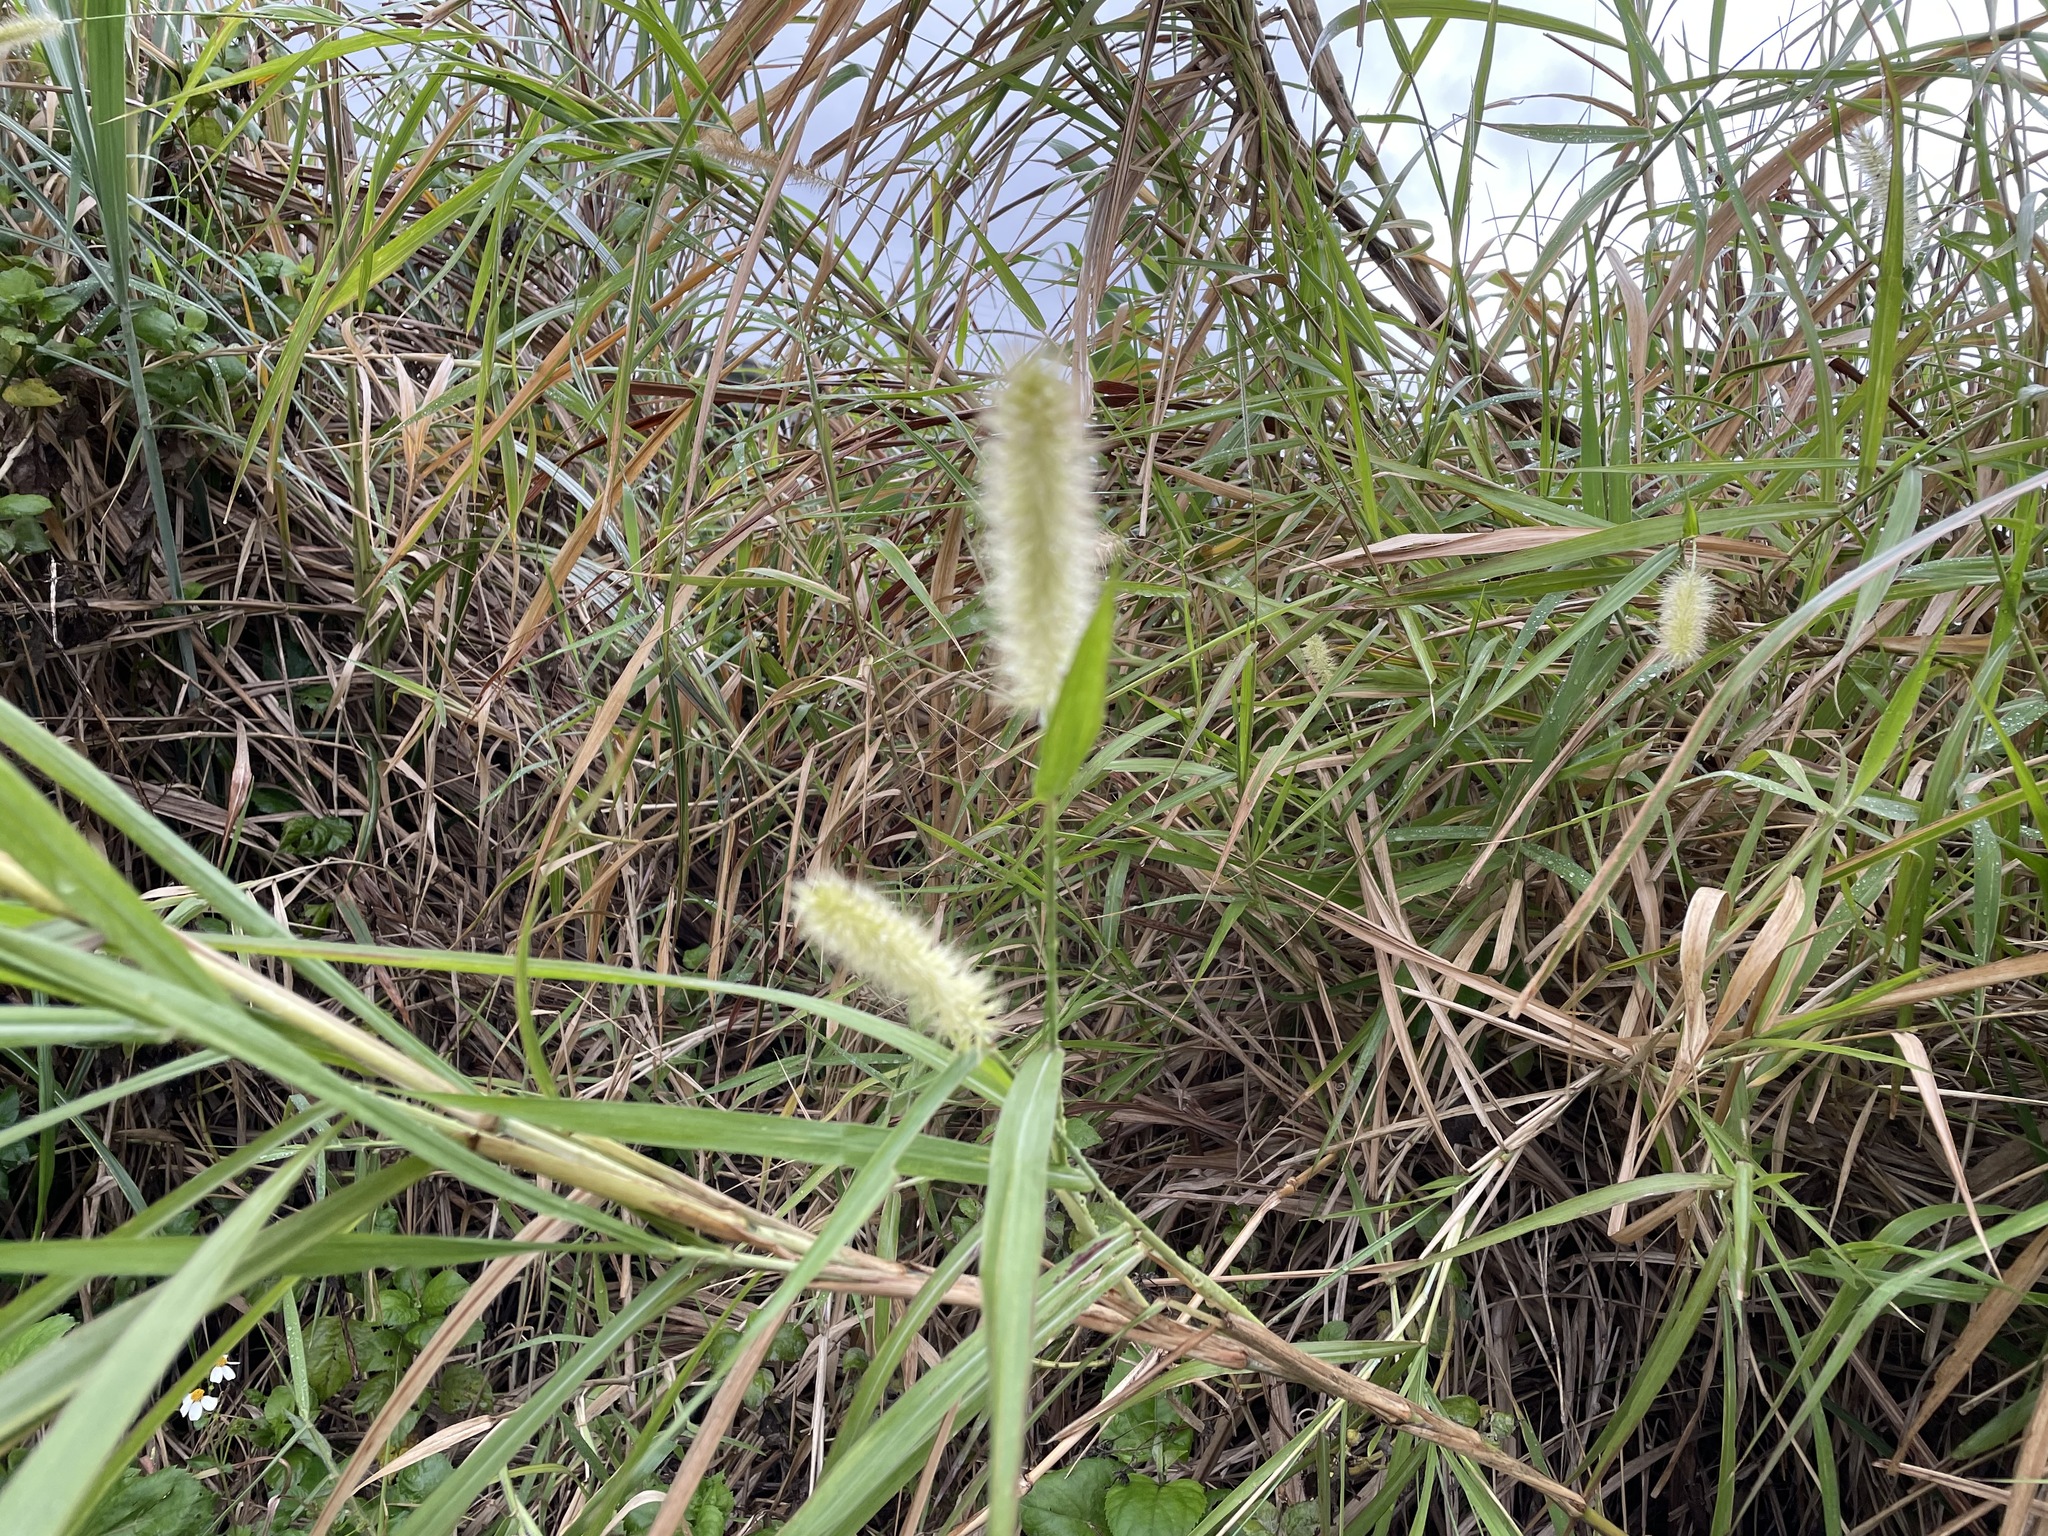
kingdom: Plantae
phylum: Tracheophyta
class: Liliopsida
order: Poales
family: Poaceae
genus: Cenchrus
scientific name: Cenchrus purpureus
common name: Elephant grass
